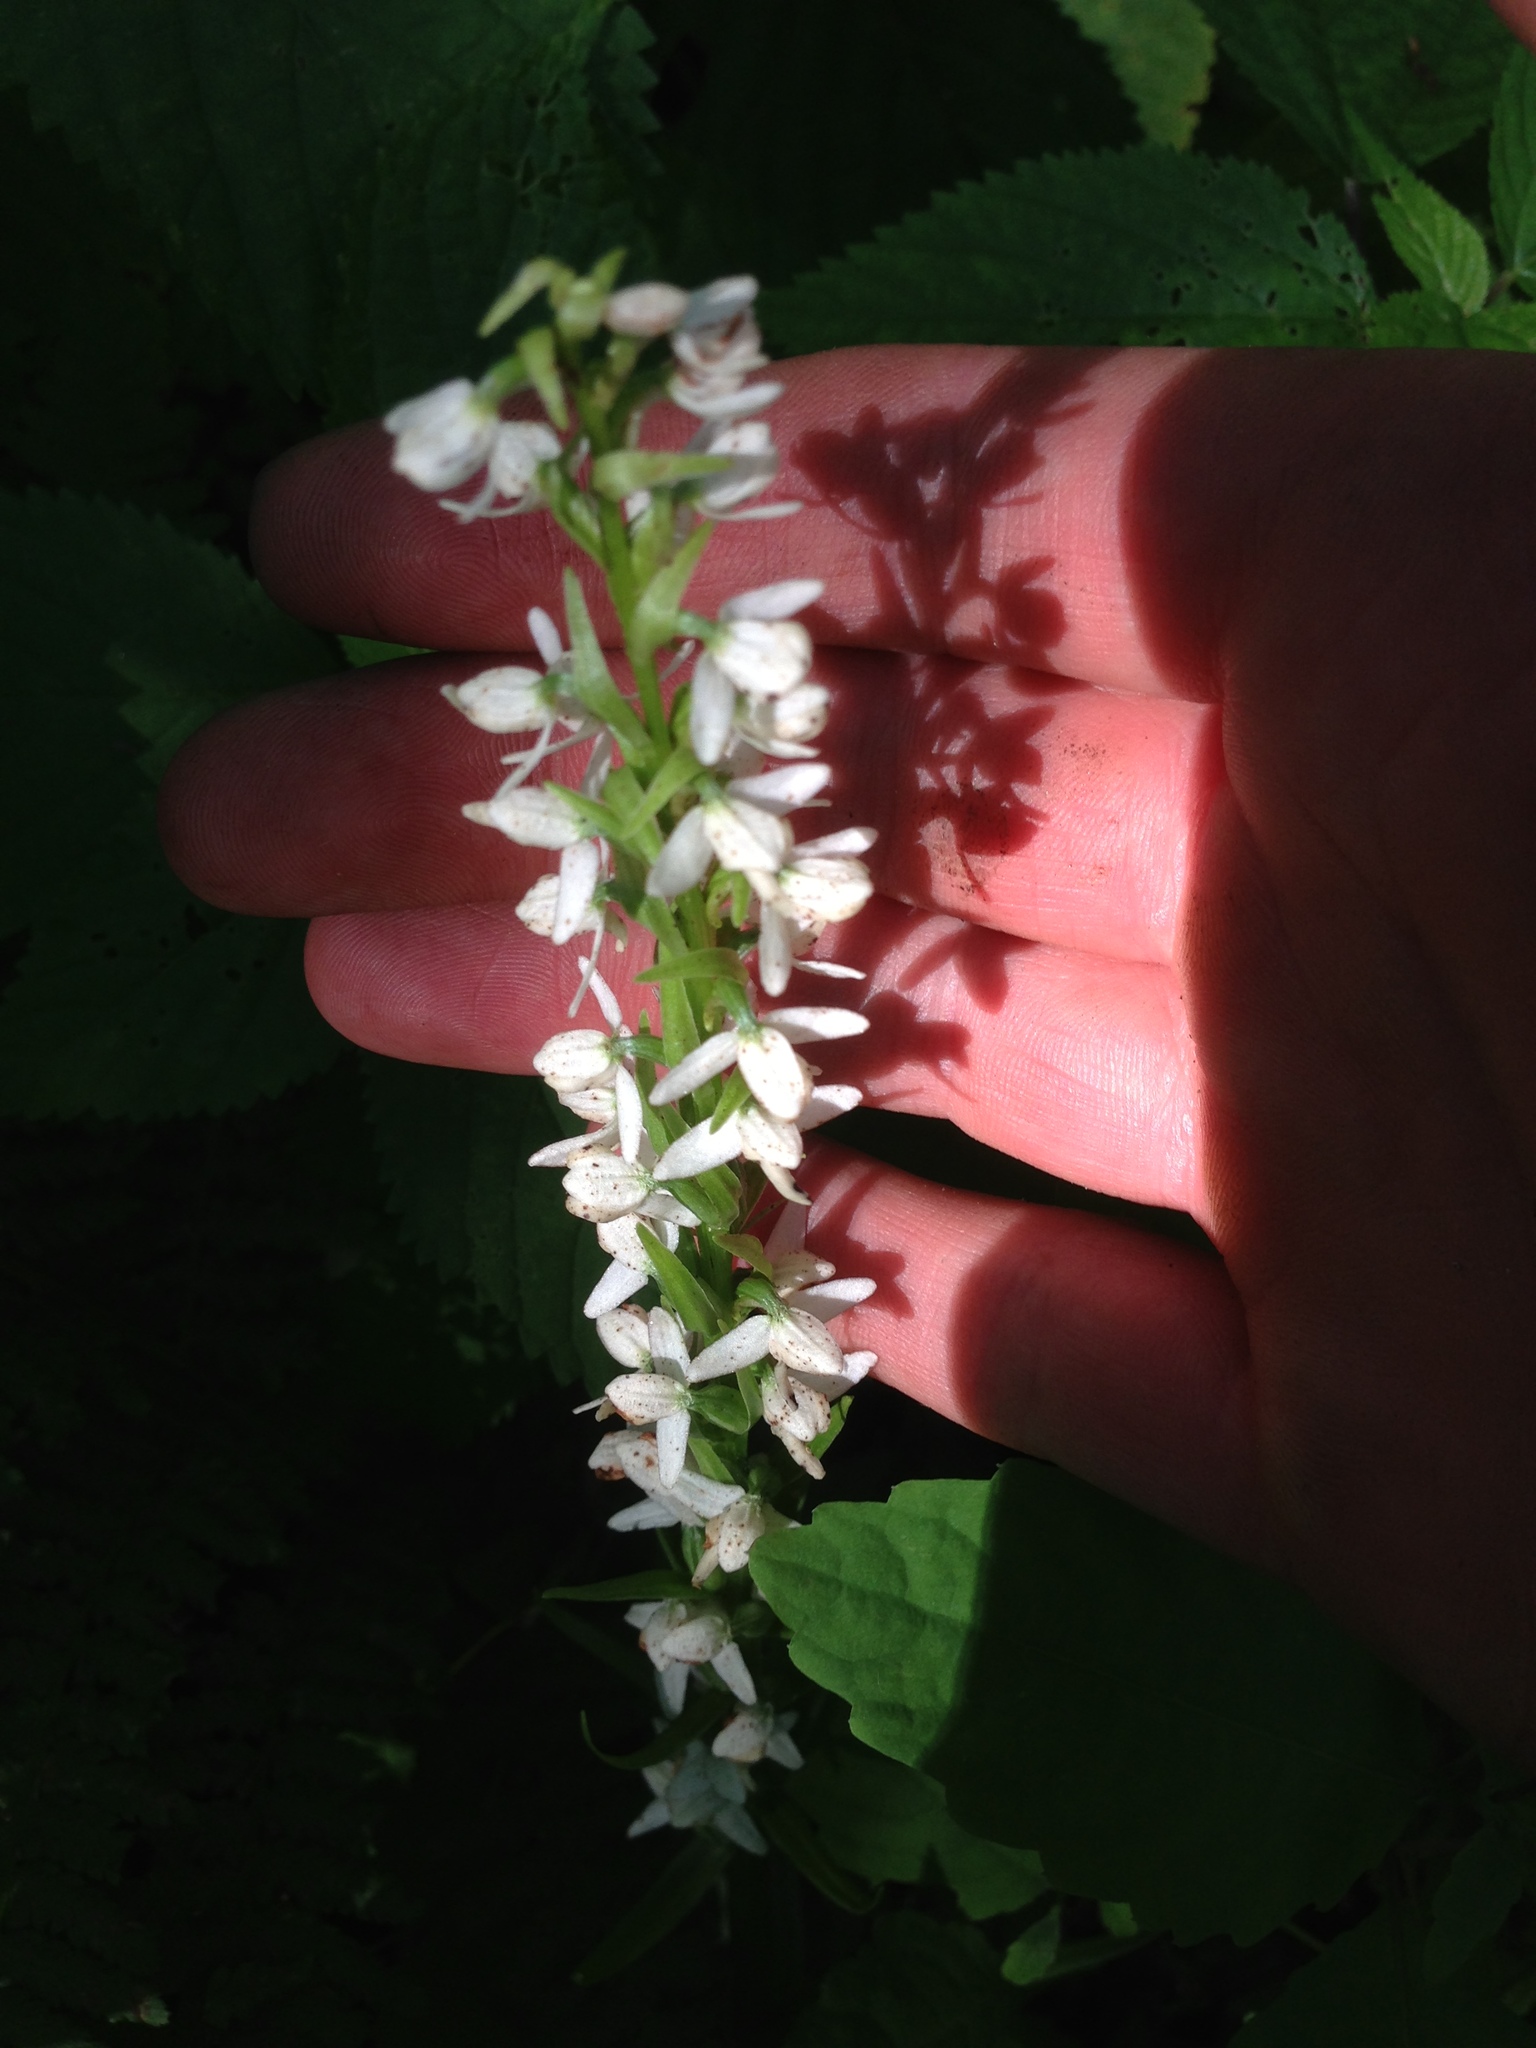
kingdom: Plantae
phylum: Tracheophyta
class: Liliopsida
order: Asparagales
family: Orchidaceae
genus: Platanthera
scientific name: Platanthera dilatata
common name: Bog candles
